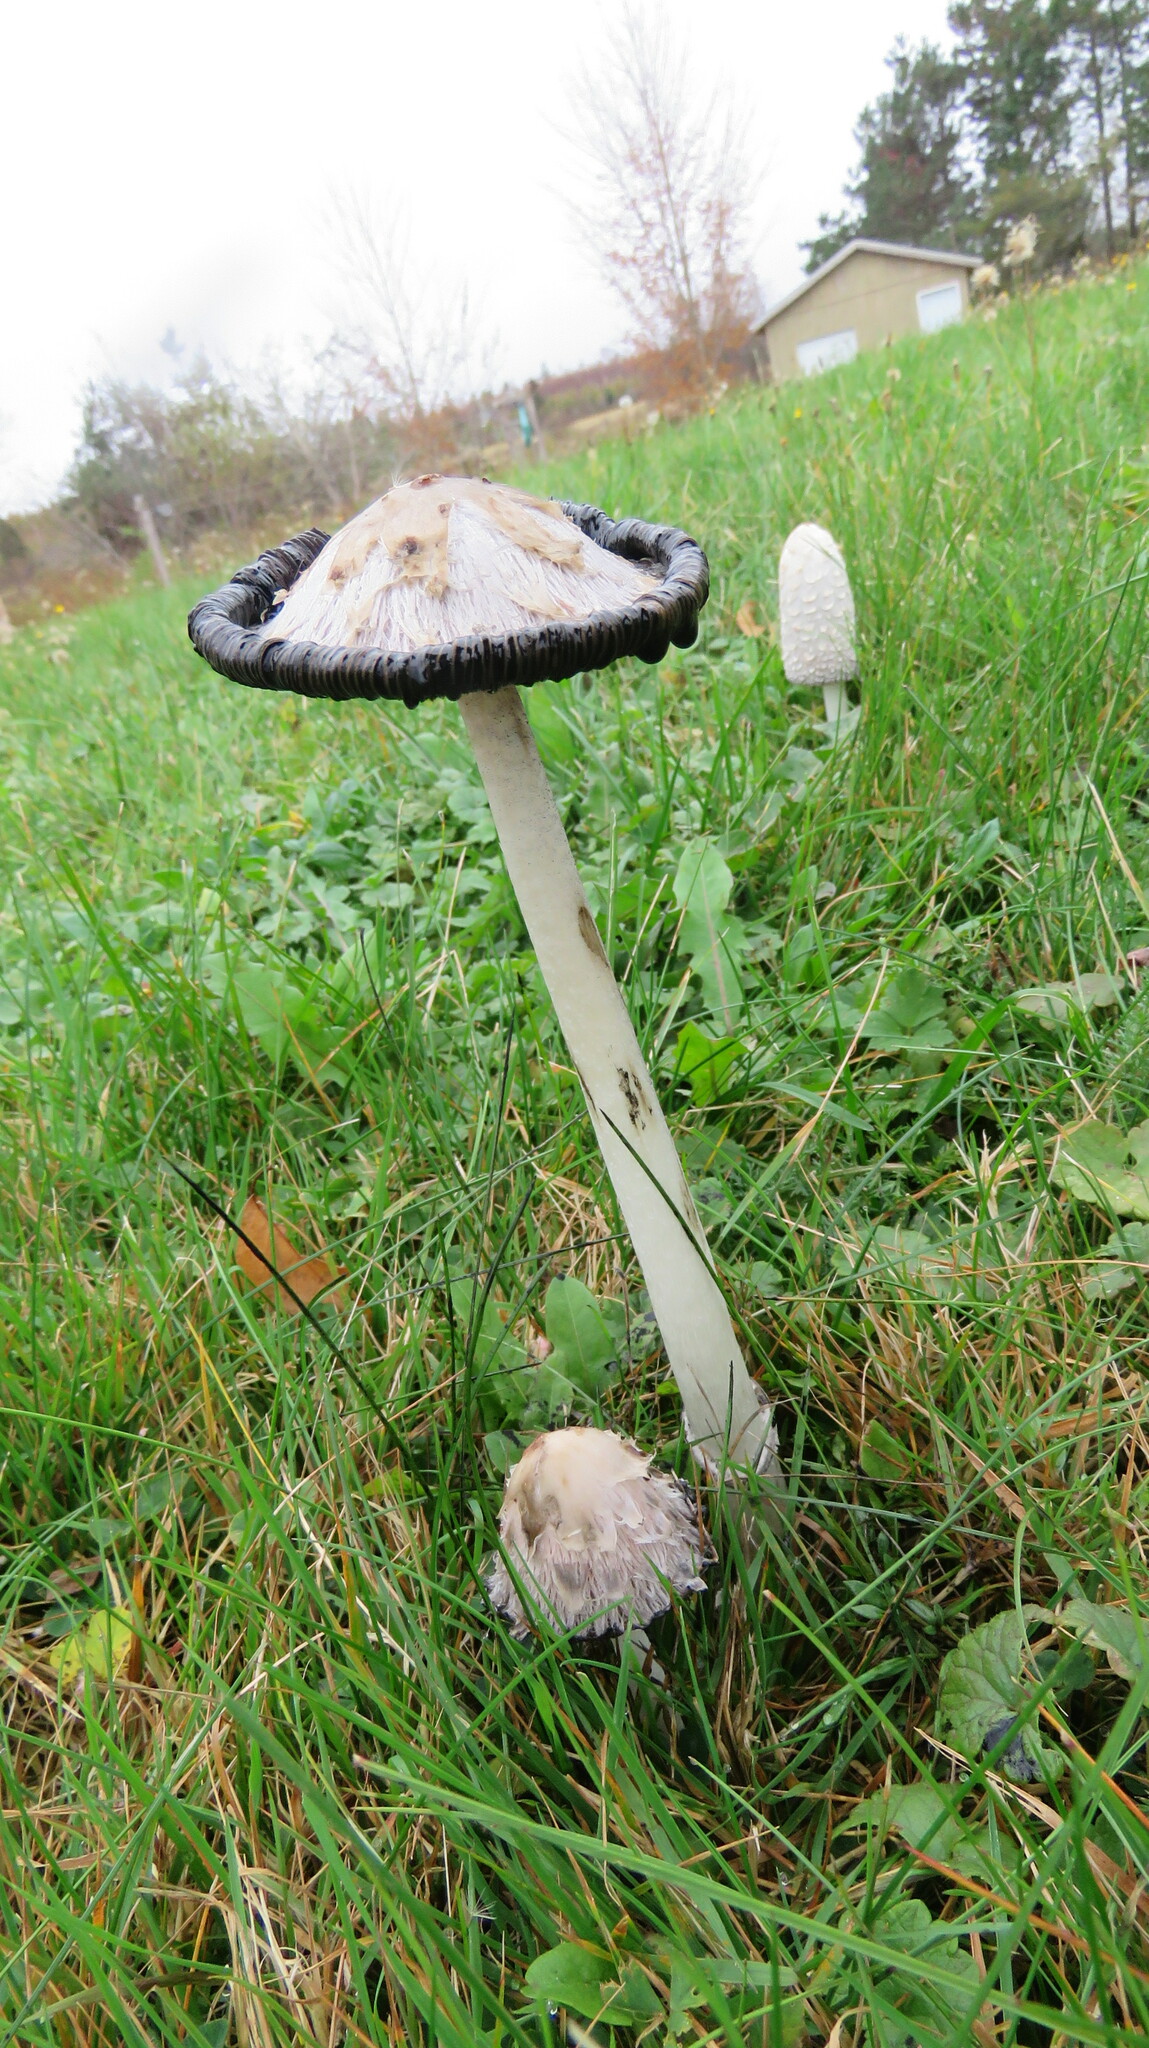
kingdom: Fungi
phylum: Basidiomycota
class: Agaricomycetes
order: Agaricales
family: Agaricaceae
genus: Coprinus
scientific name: Coprinus comatus
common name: Lawyer's wig
